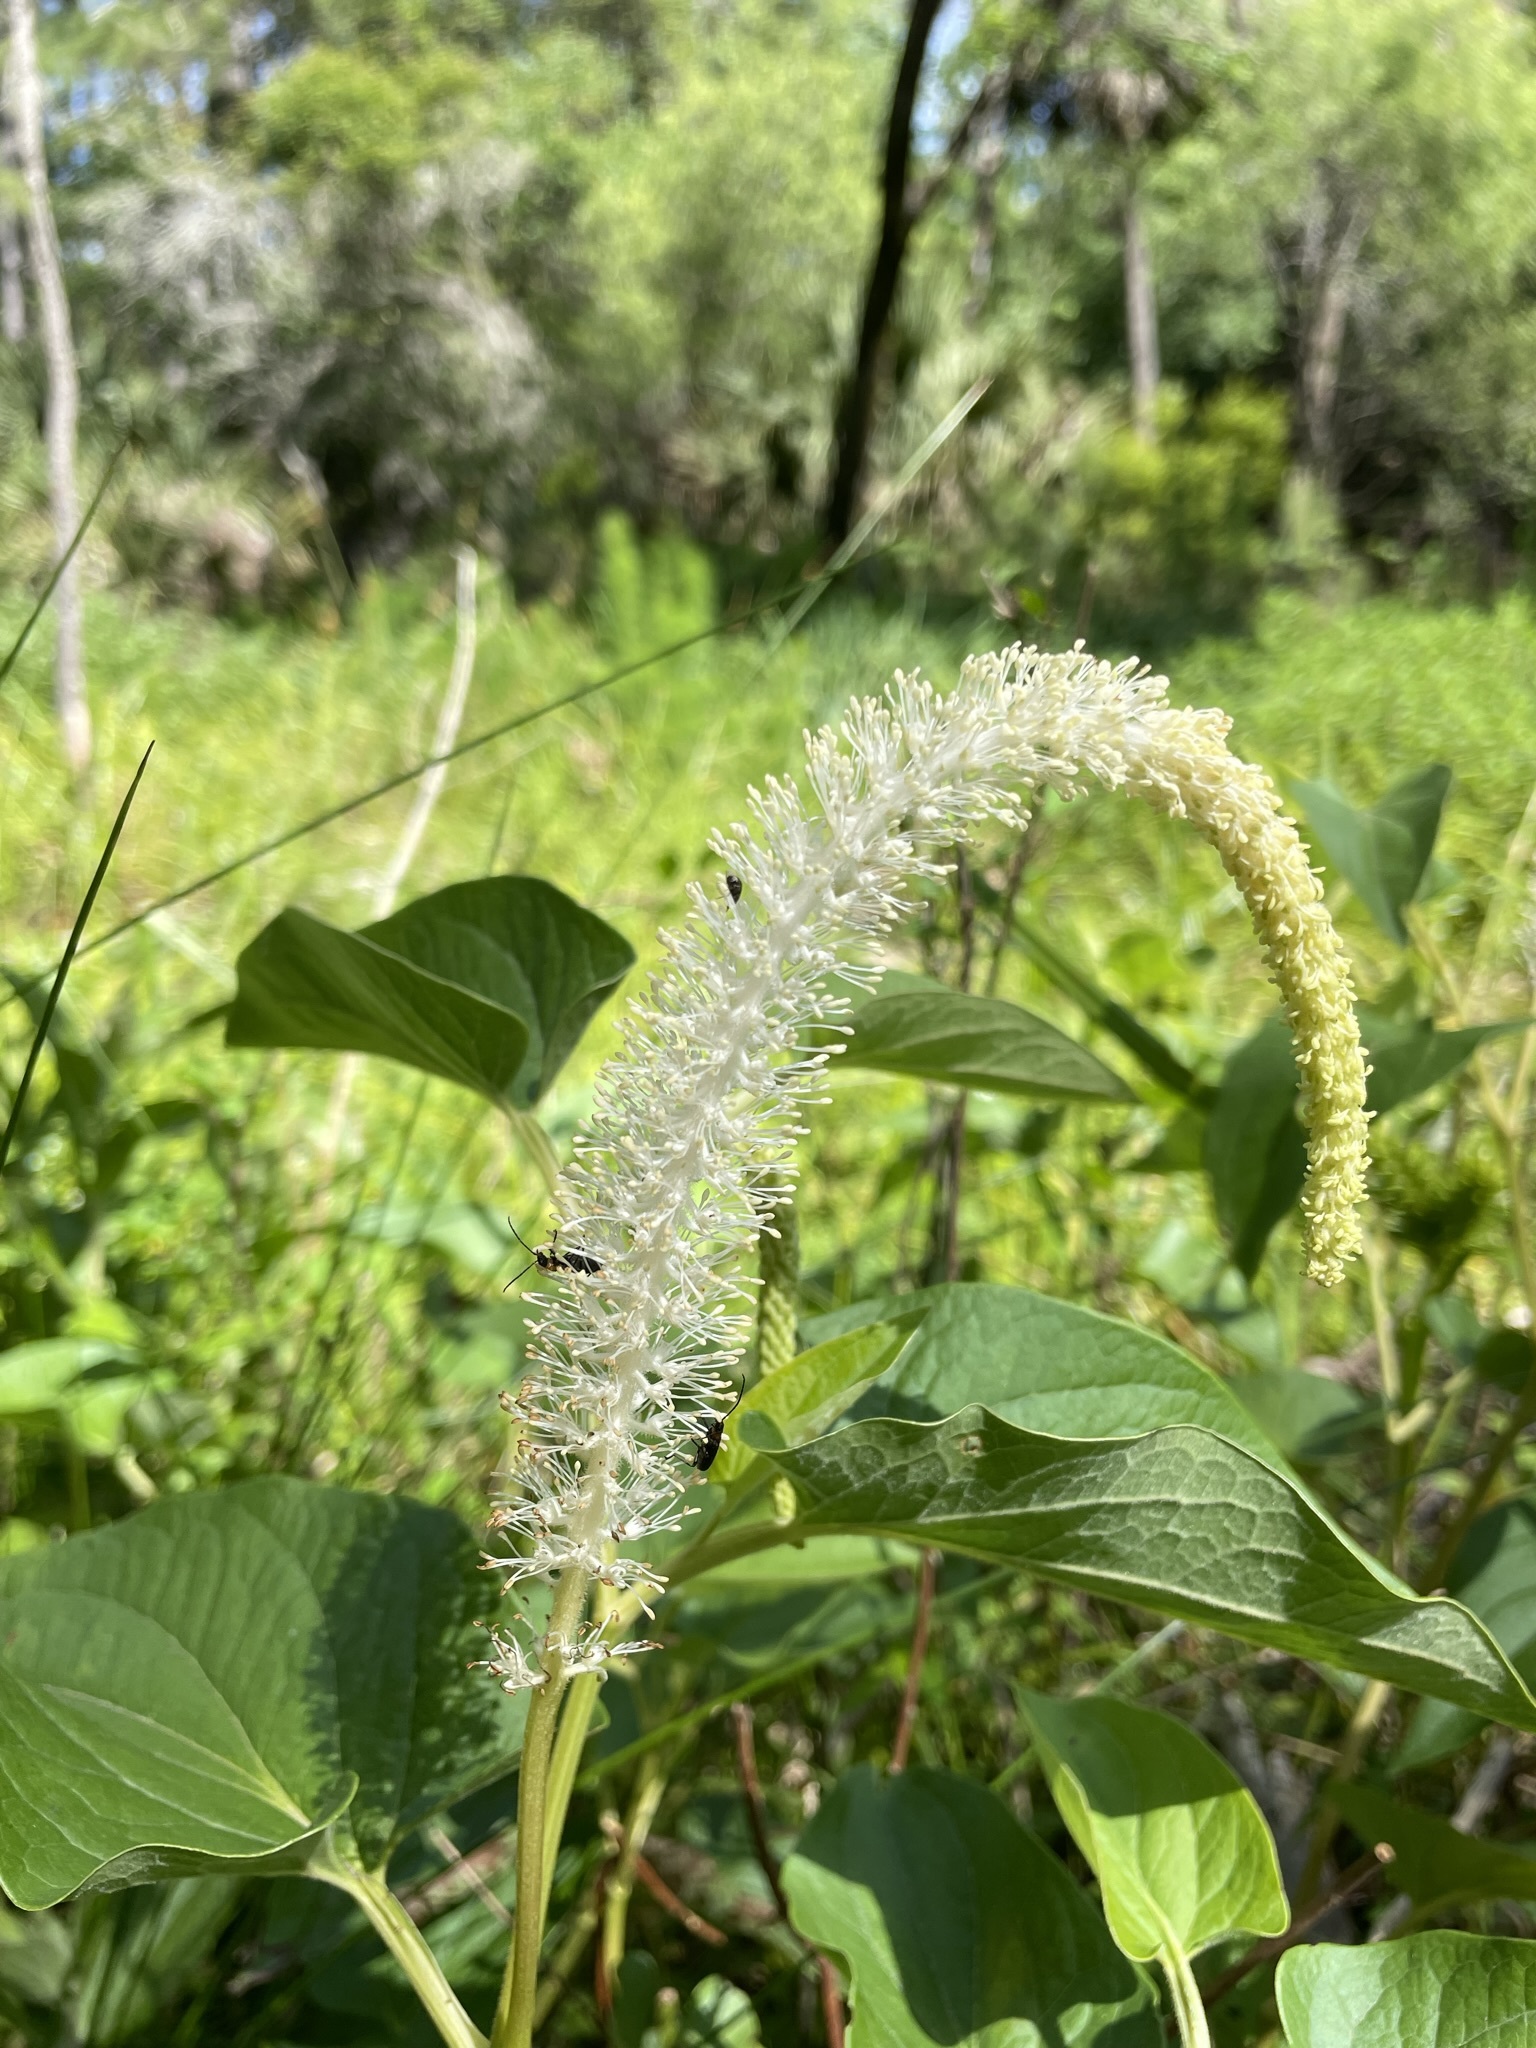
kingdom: Plantae
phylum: Tracheophyta
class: Magnoliopsida
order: Piperales
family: Saururaceae
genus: Saururus
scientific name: Saururus cernuus
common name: Lizard's-tail
